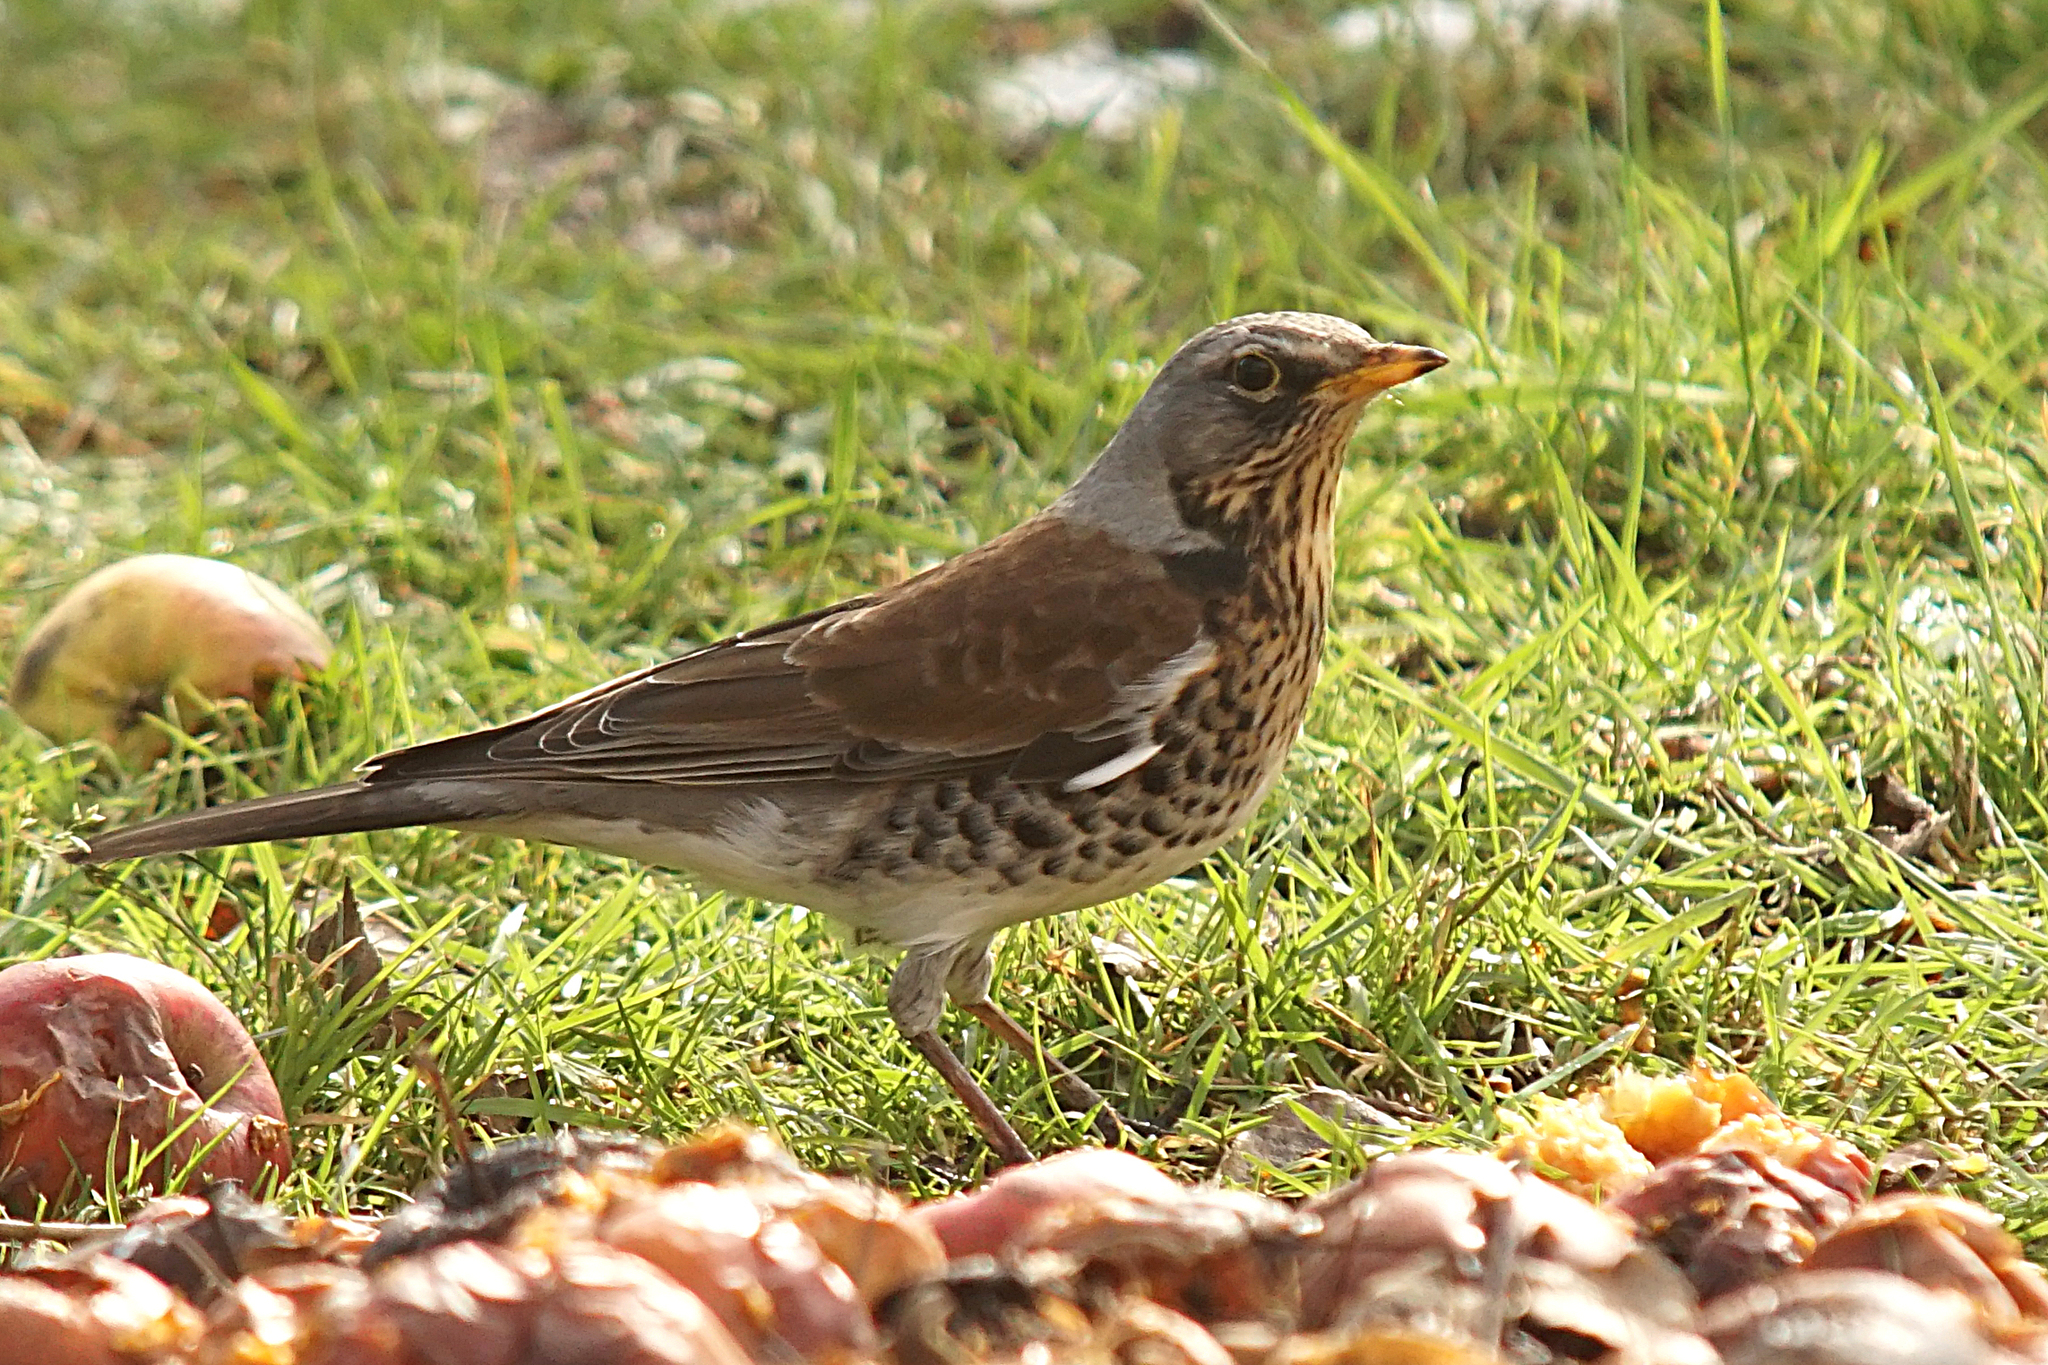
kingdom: Animalia
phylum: Chordata
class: Aves
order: Passeriformes
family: Turdidae
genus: Turdus
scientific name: Turdus pilaris
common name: Fieldfare
